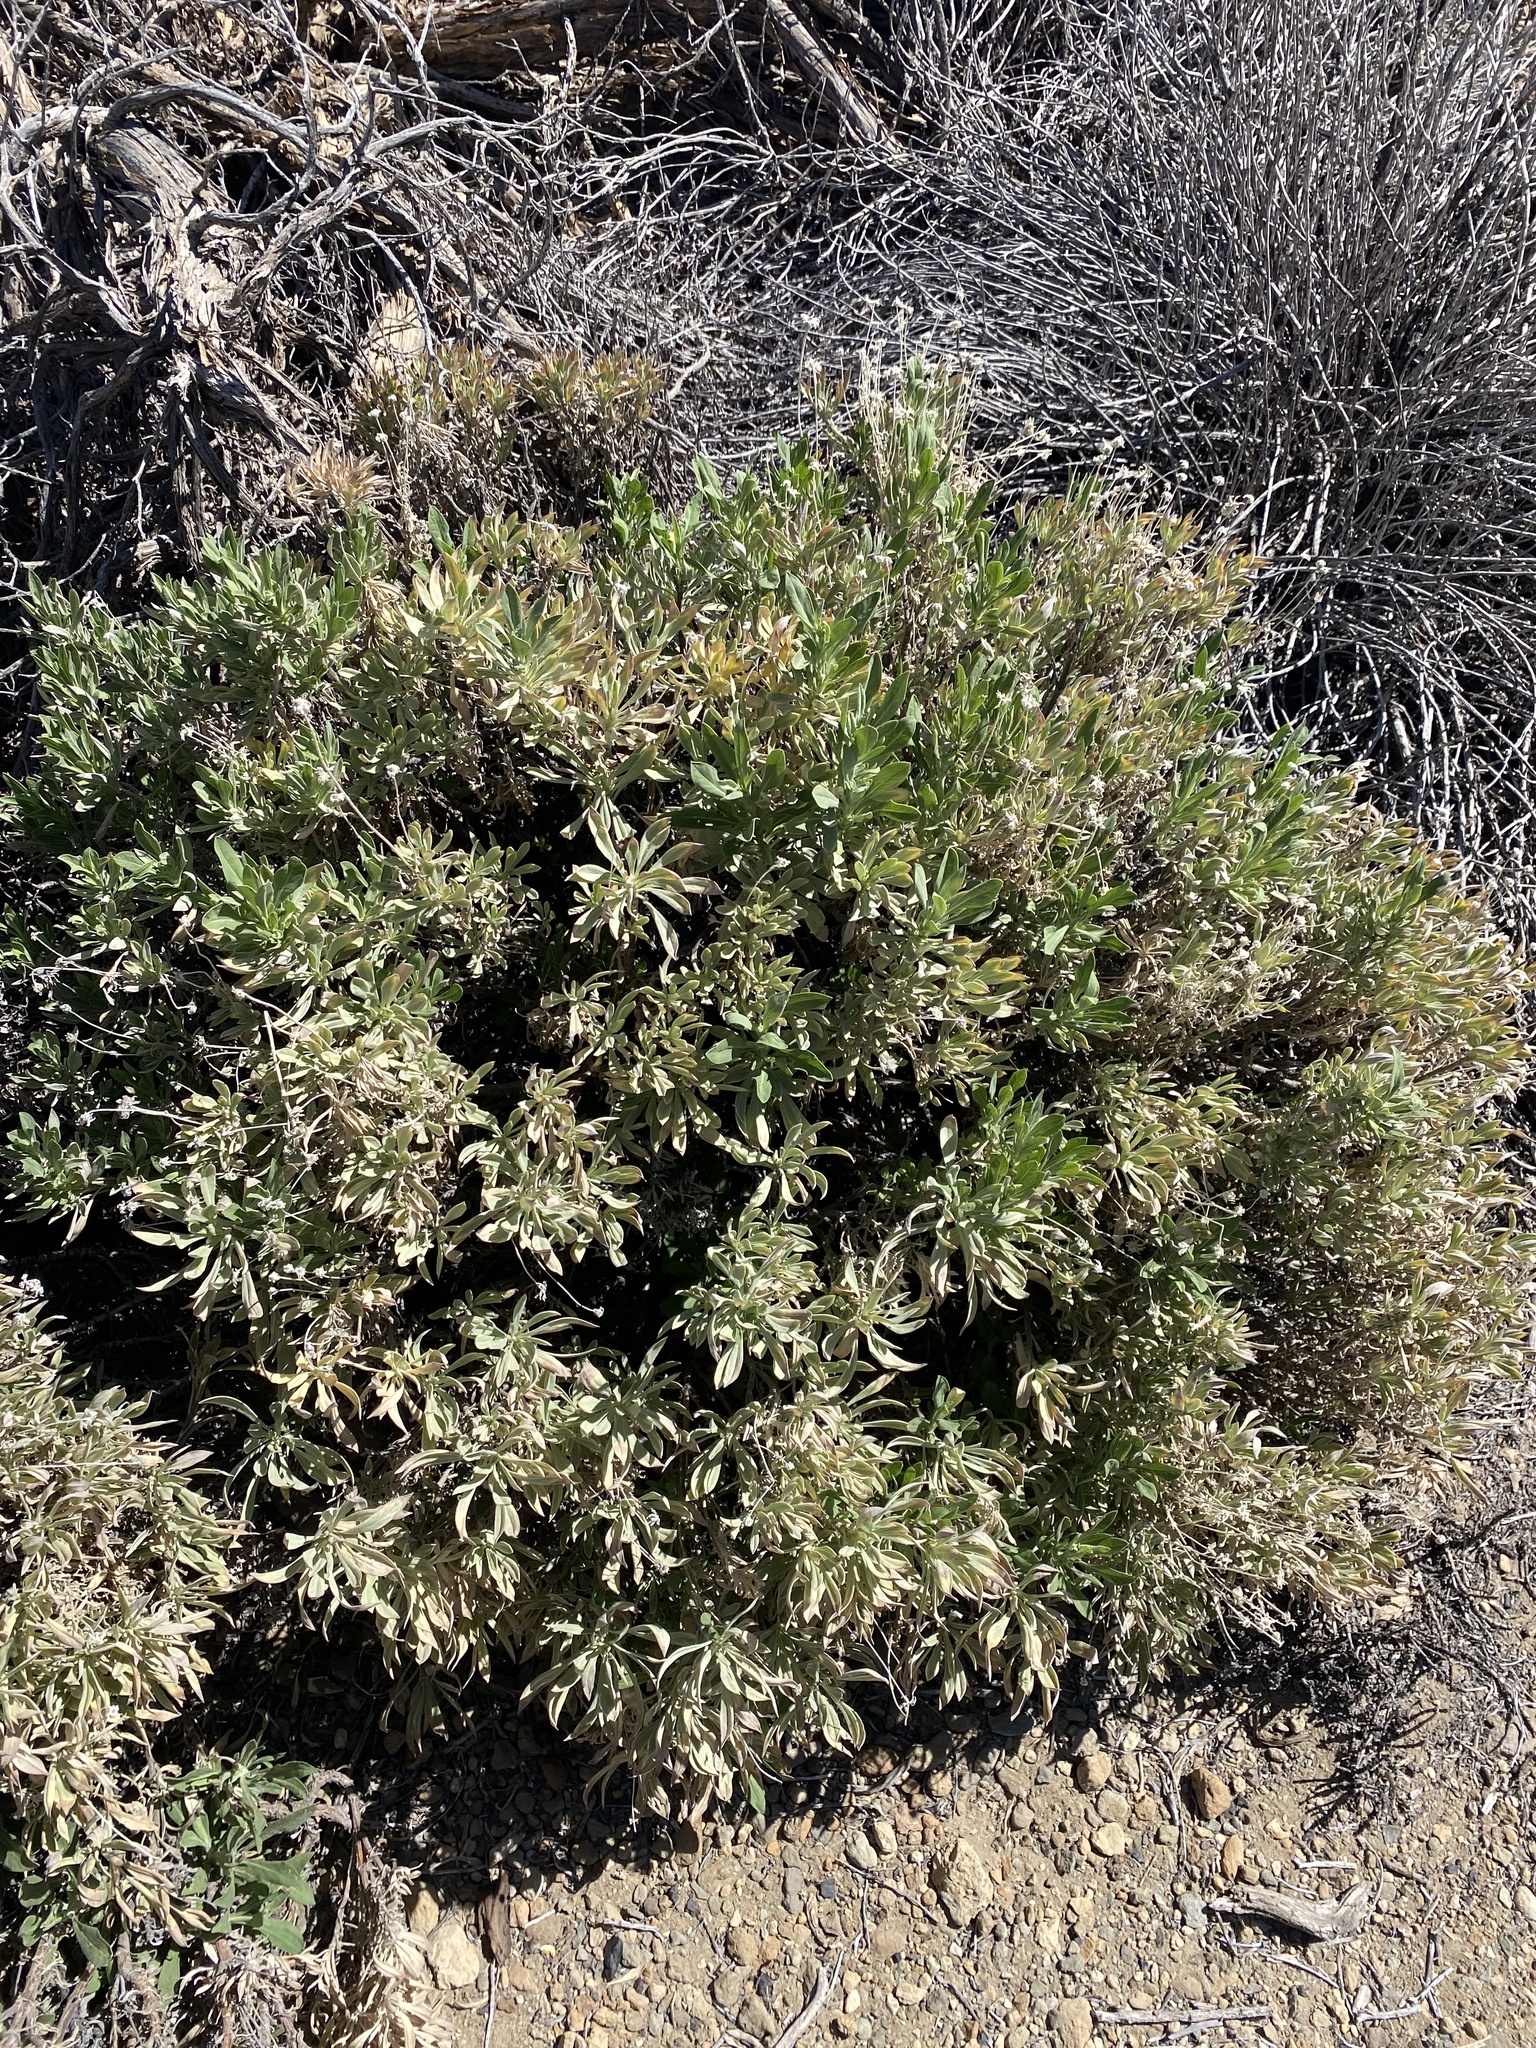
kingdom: Plantae
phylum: Tracheophyta
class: Magnoliopsida
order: Dipsacales
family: Caprifoliaceae
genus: Pterocephalus
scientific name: Pterocephalus lasiospermus
